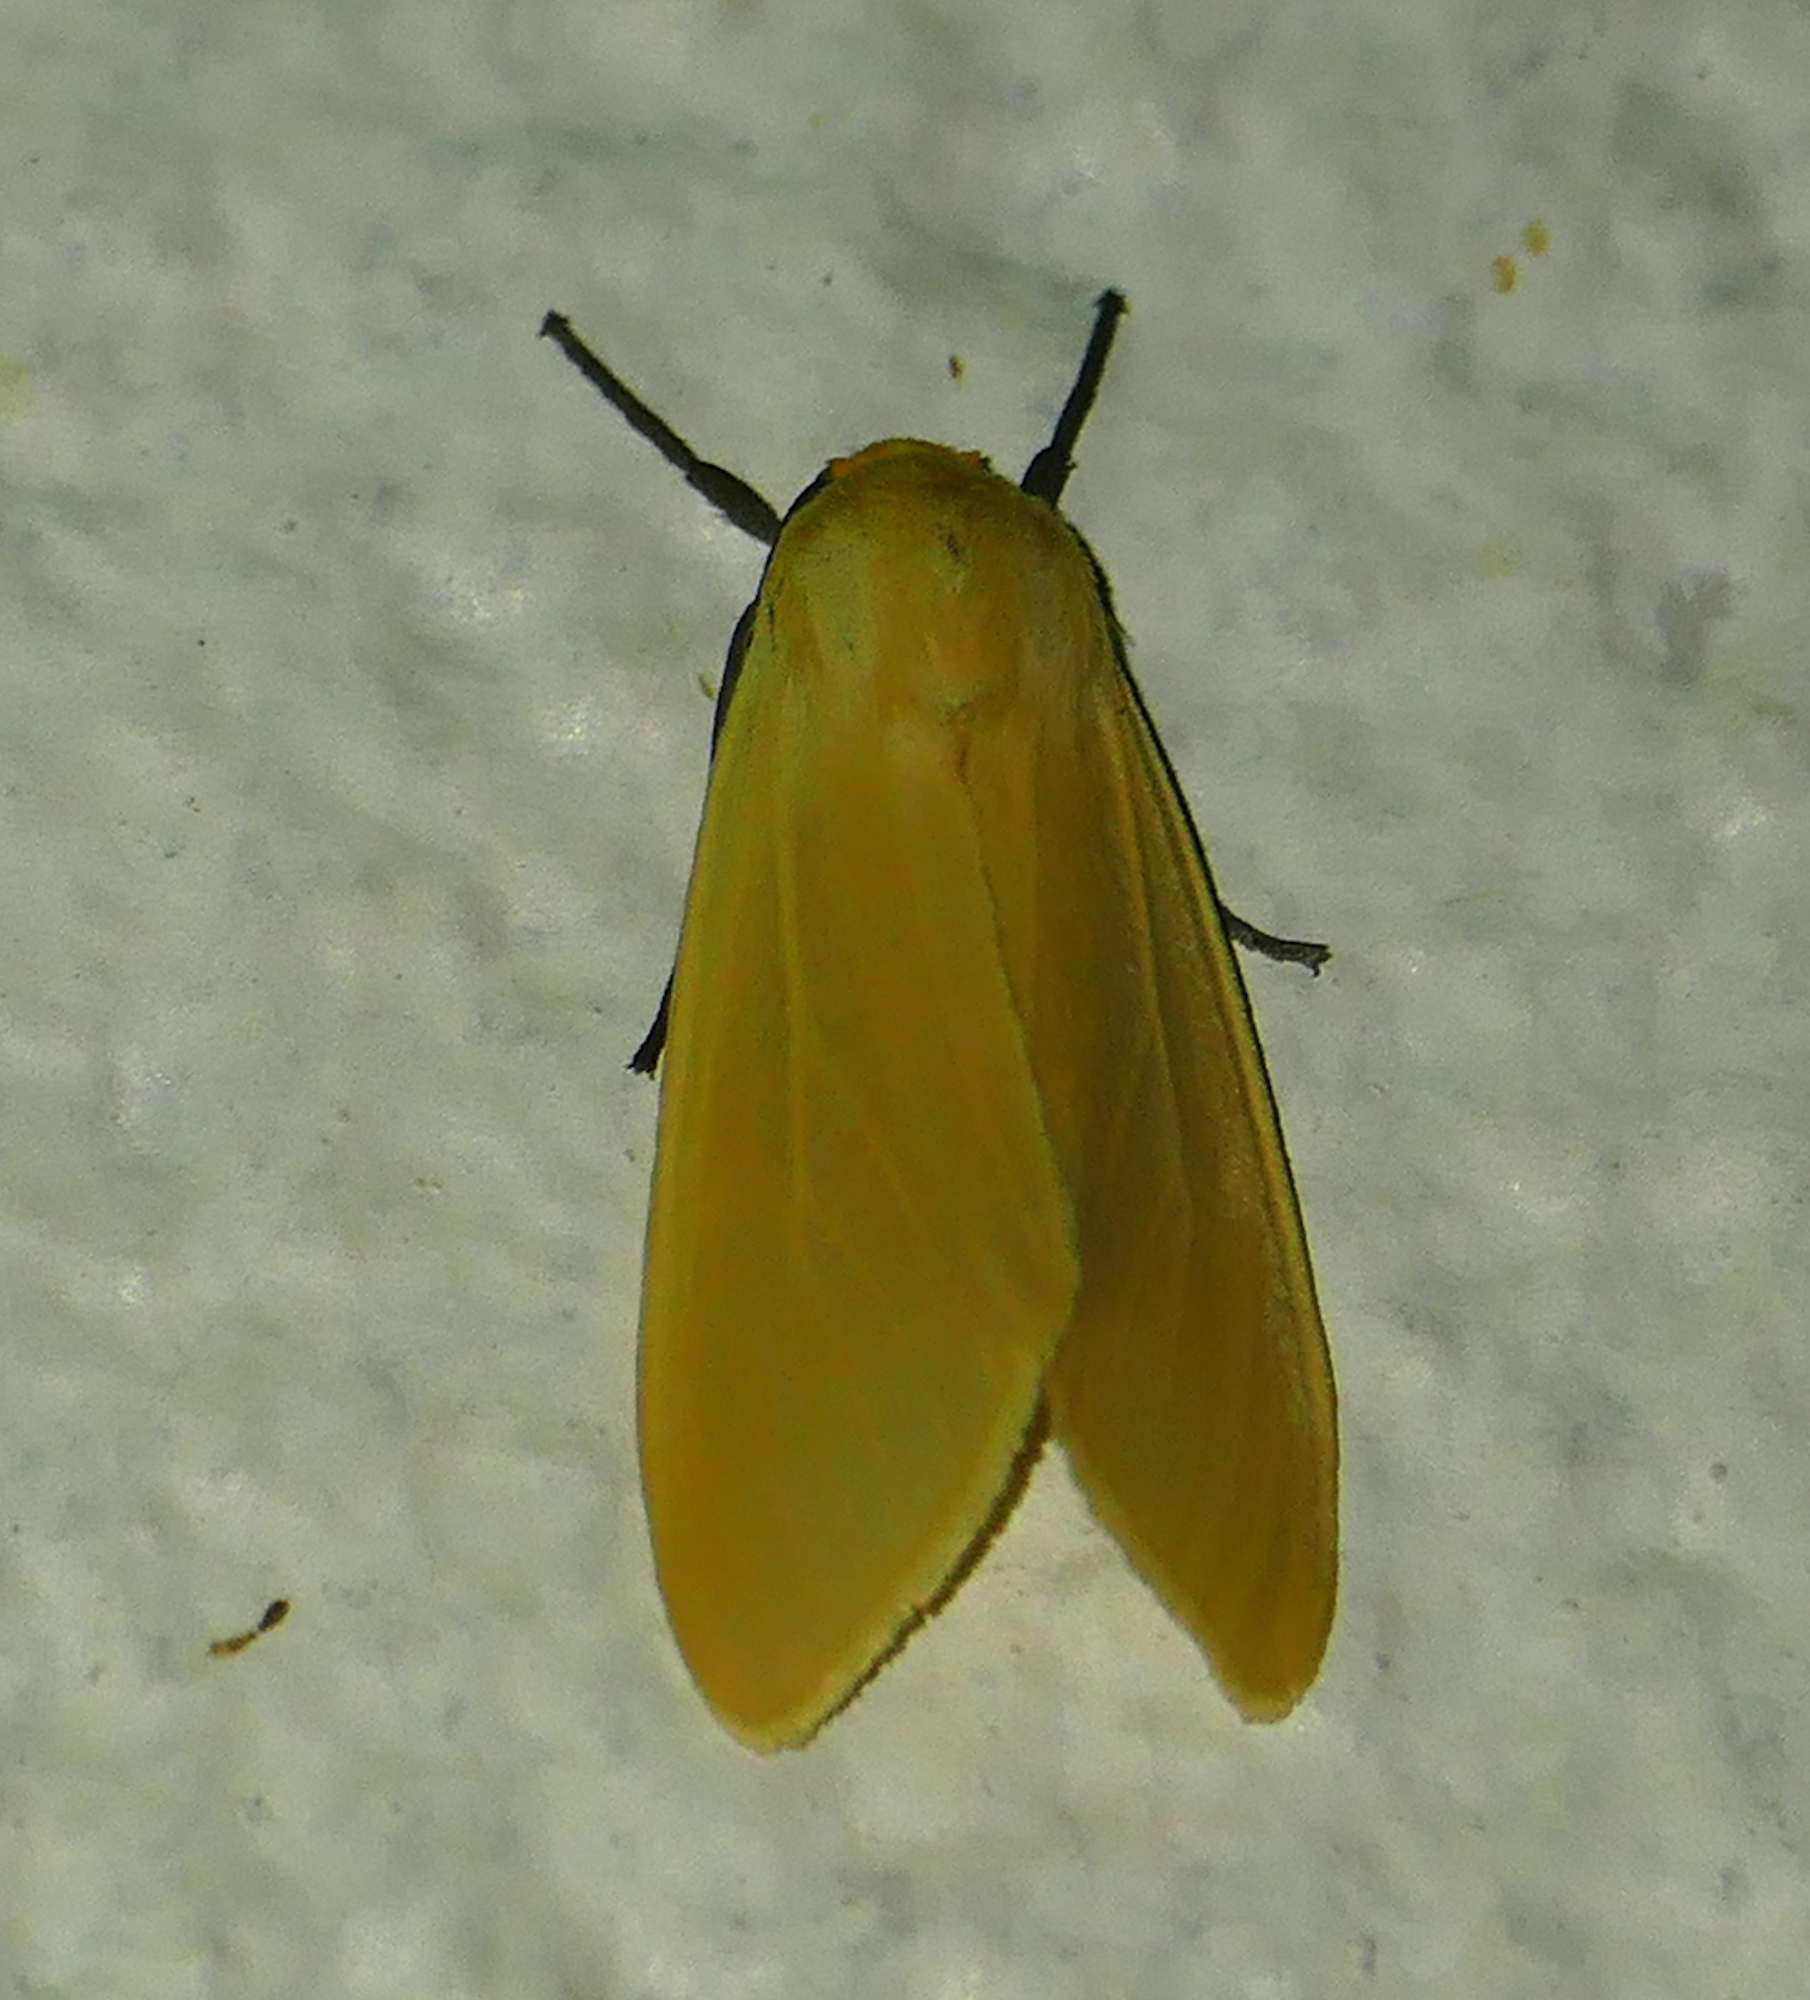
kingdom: Animalia
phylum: Arthropoda
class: Insecta
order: Lepidoptera
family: Erebidae
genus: Pareuchaetes
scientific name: Pareuchaetes insulata
